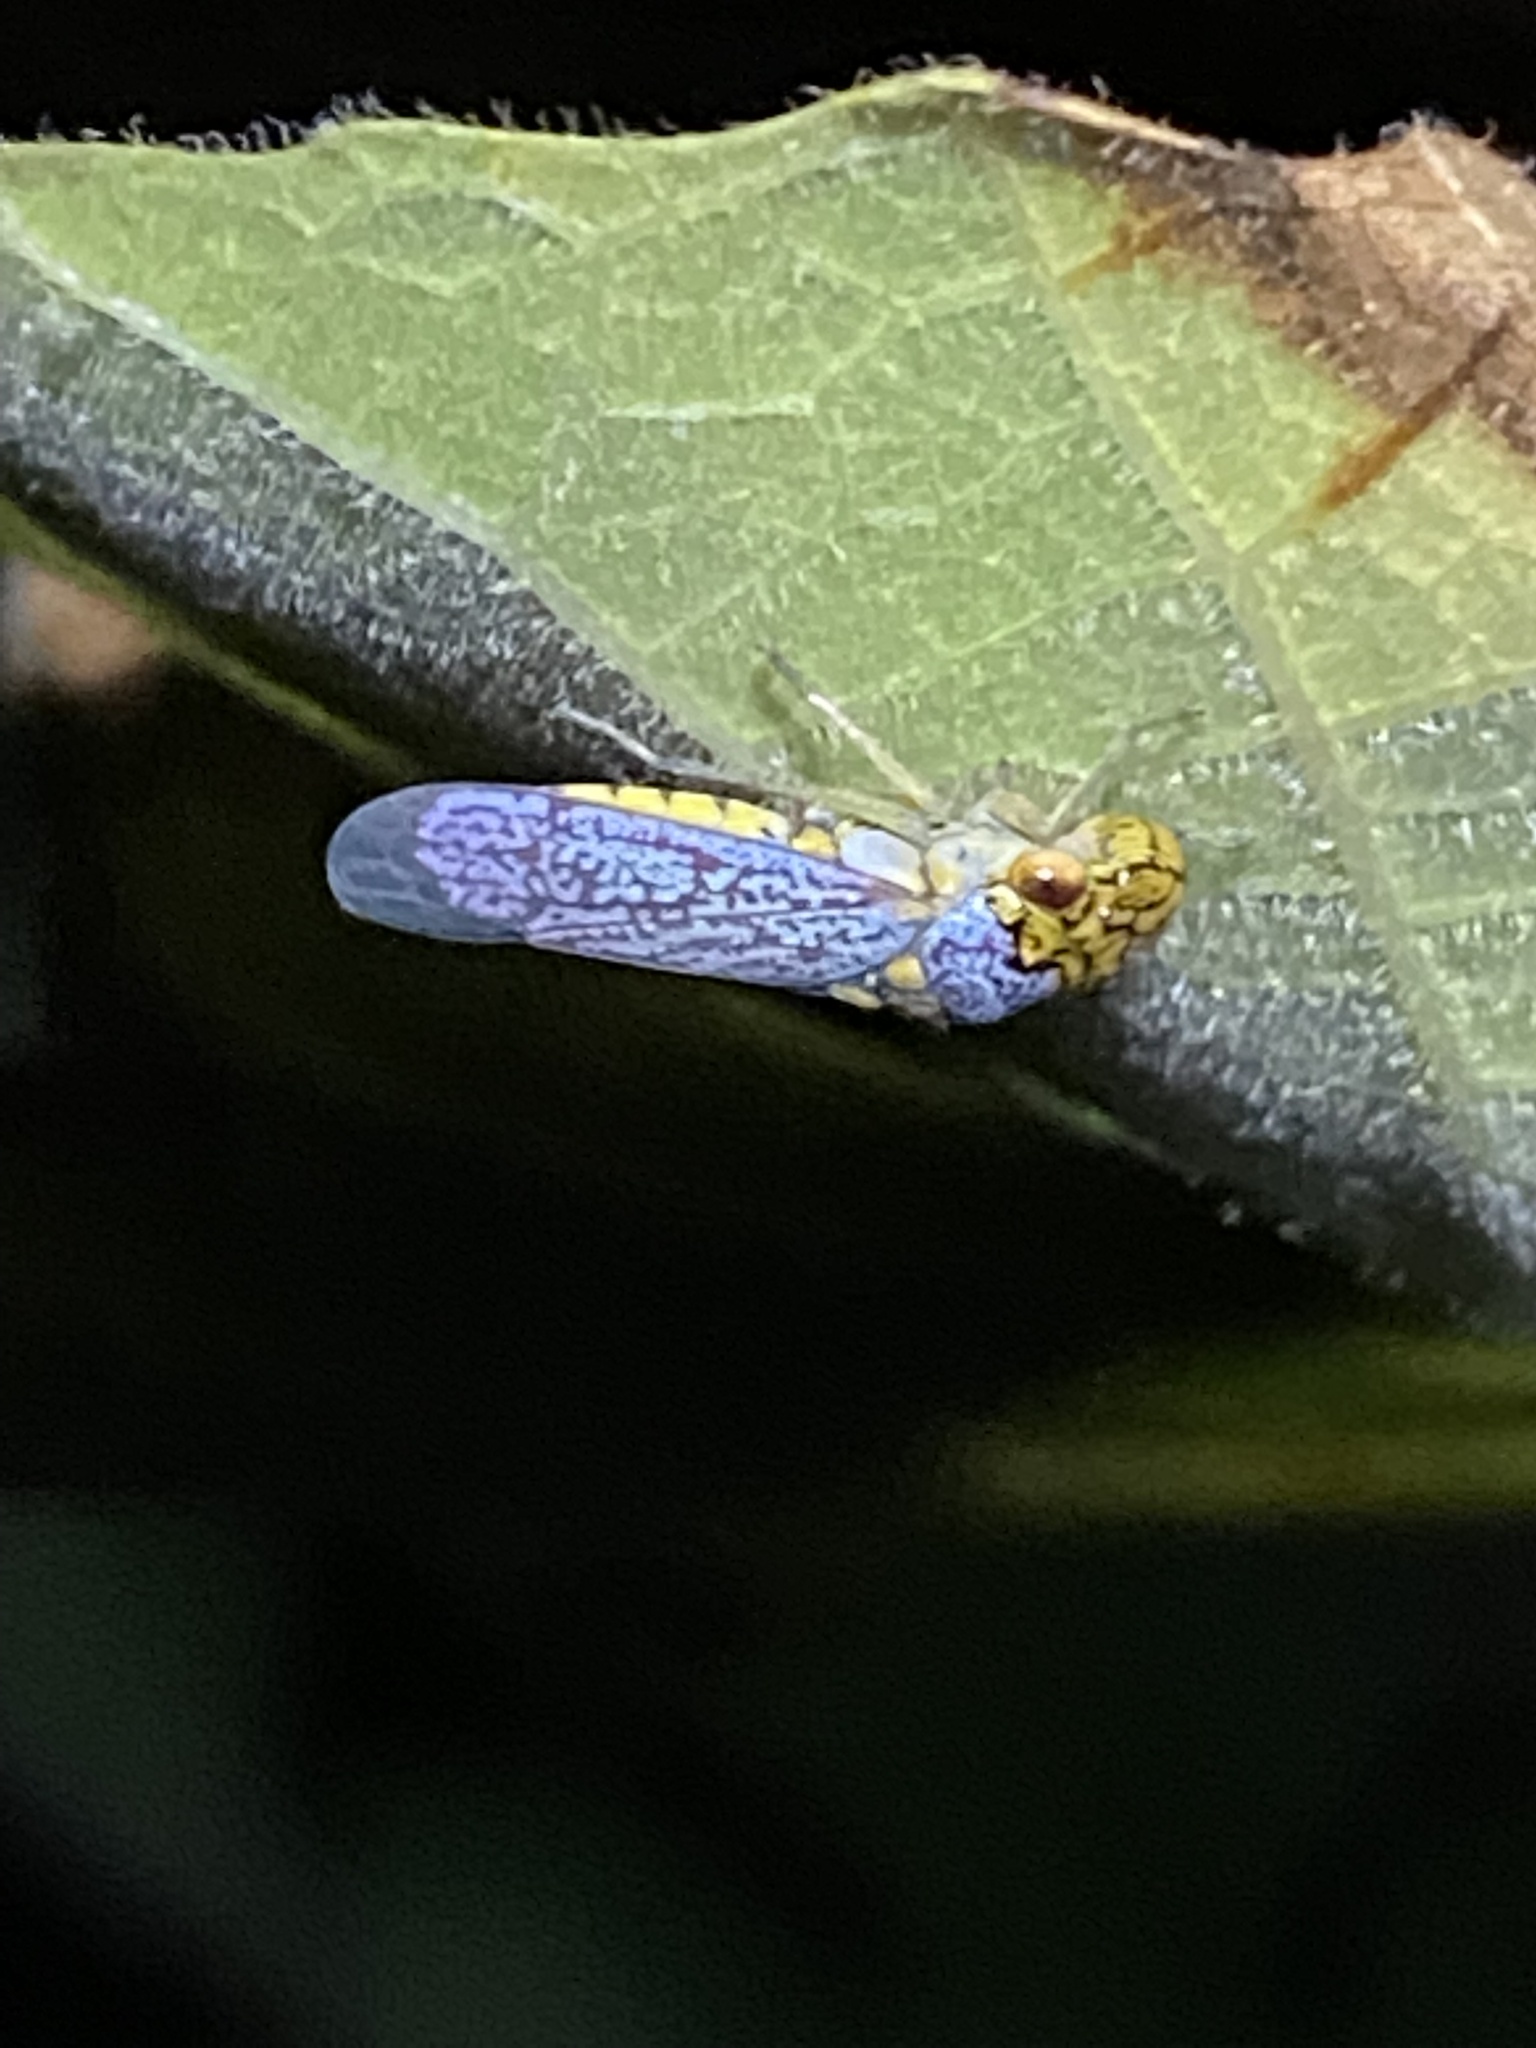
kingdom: Animalia
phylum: Arthropoda
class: Insecta
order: Hemiptera
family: Cicadellidae
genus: Oncometopia
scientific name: Oncometopia orbona
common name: Broad-headed sharpshooter
